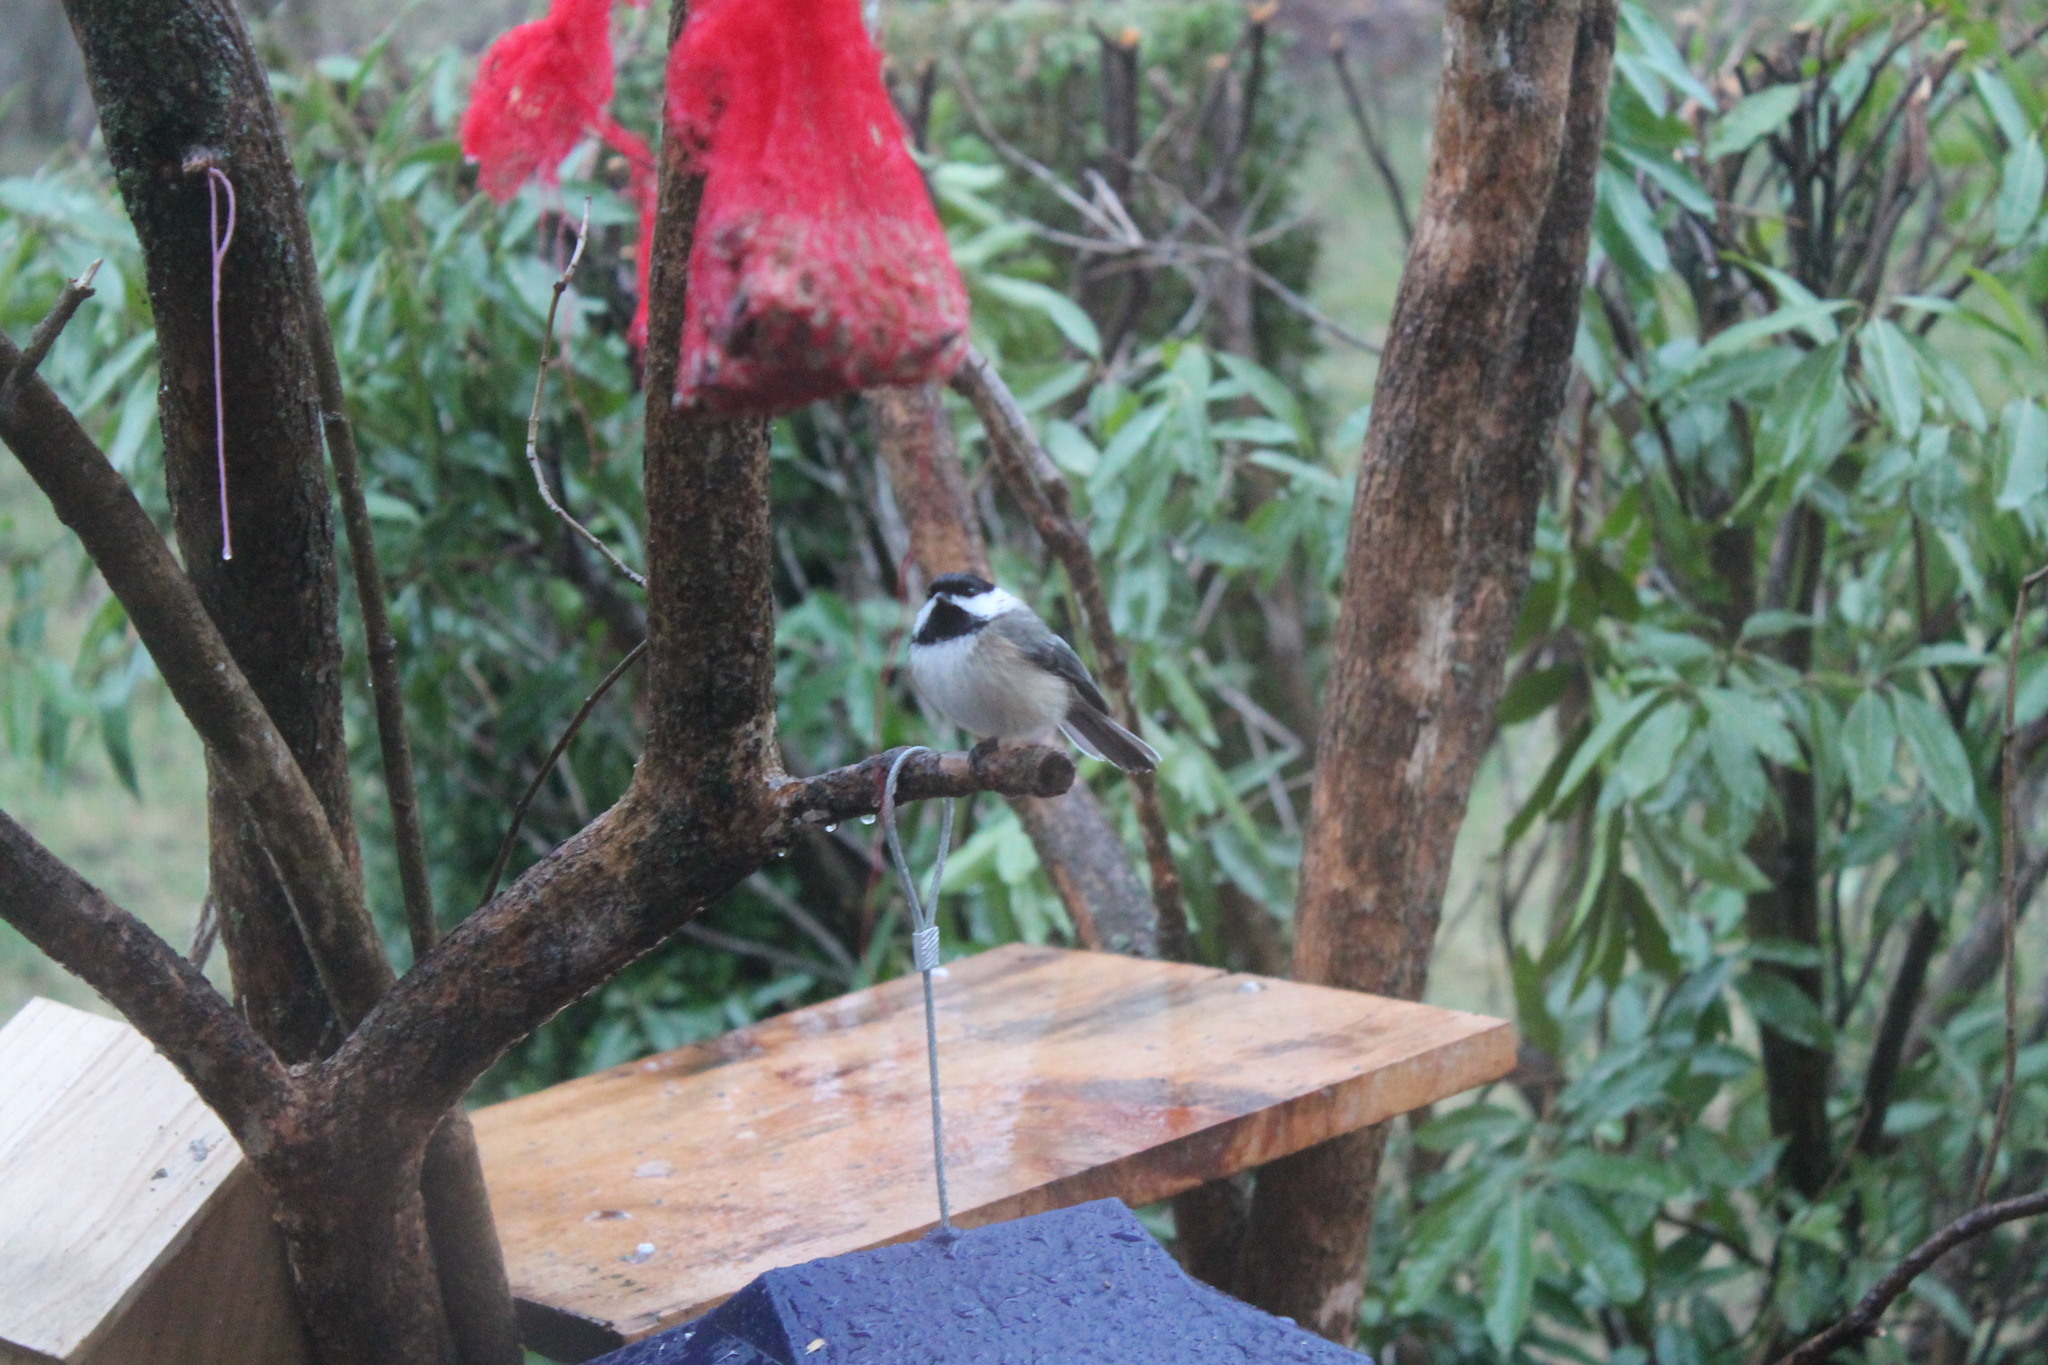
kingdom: Animalia
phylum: Chordata
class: Aves
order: Passeriformes
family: Paridae
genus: Poecile
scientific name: Poecile atricapillus
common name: Black-capped chickadee
